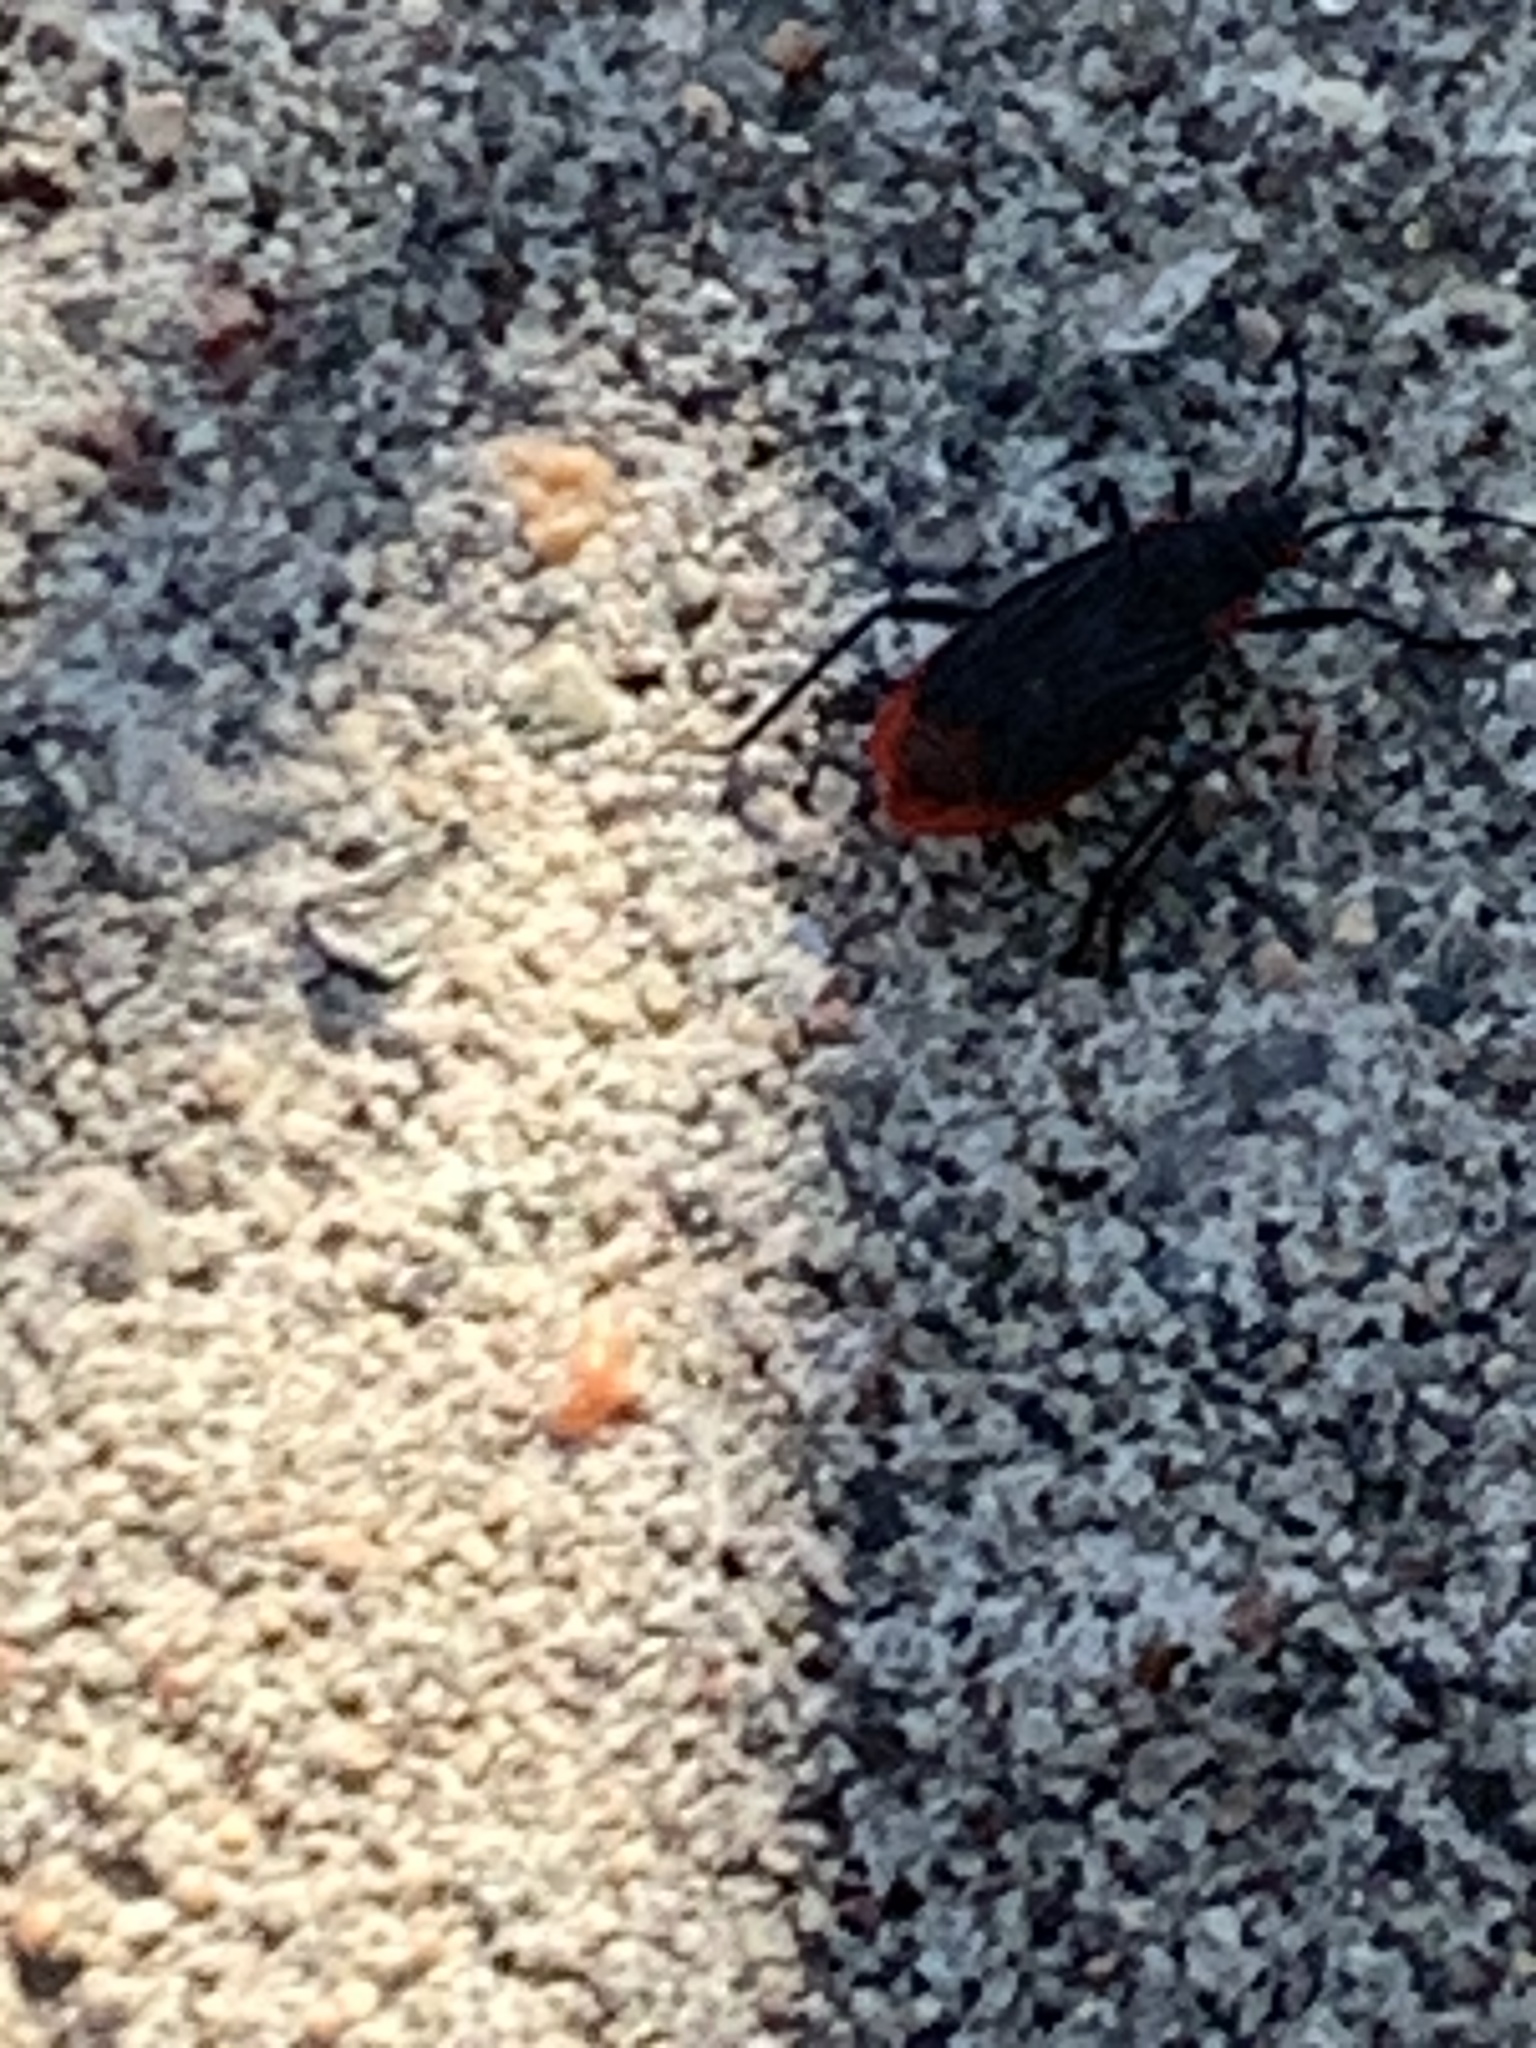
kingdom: Animalia
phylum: Arthropoda
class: Insecta
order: Hemiptera
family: Rhopalidae
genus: Jadera
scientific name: Jadera haematoloma
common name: Red-shouldered bug
